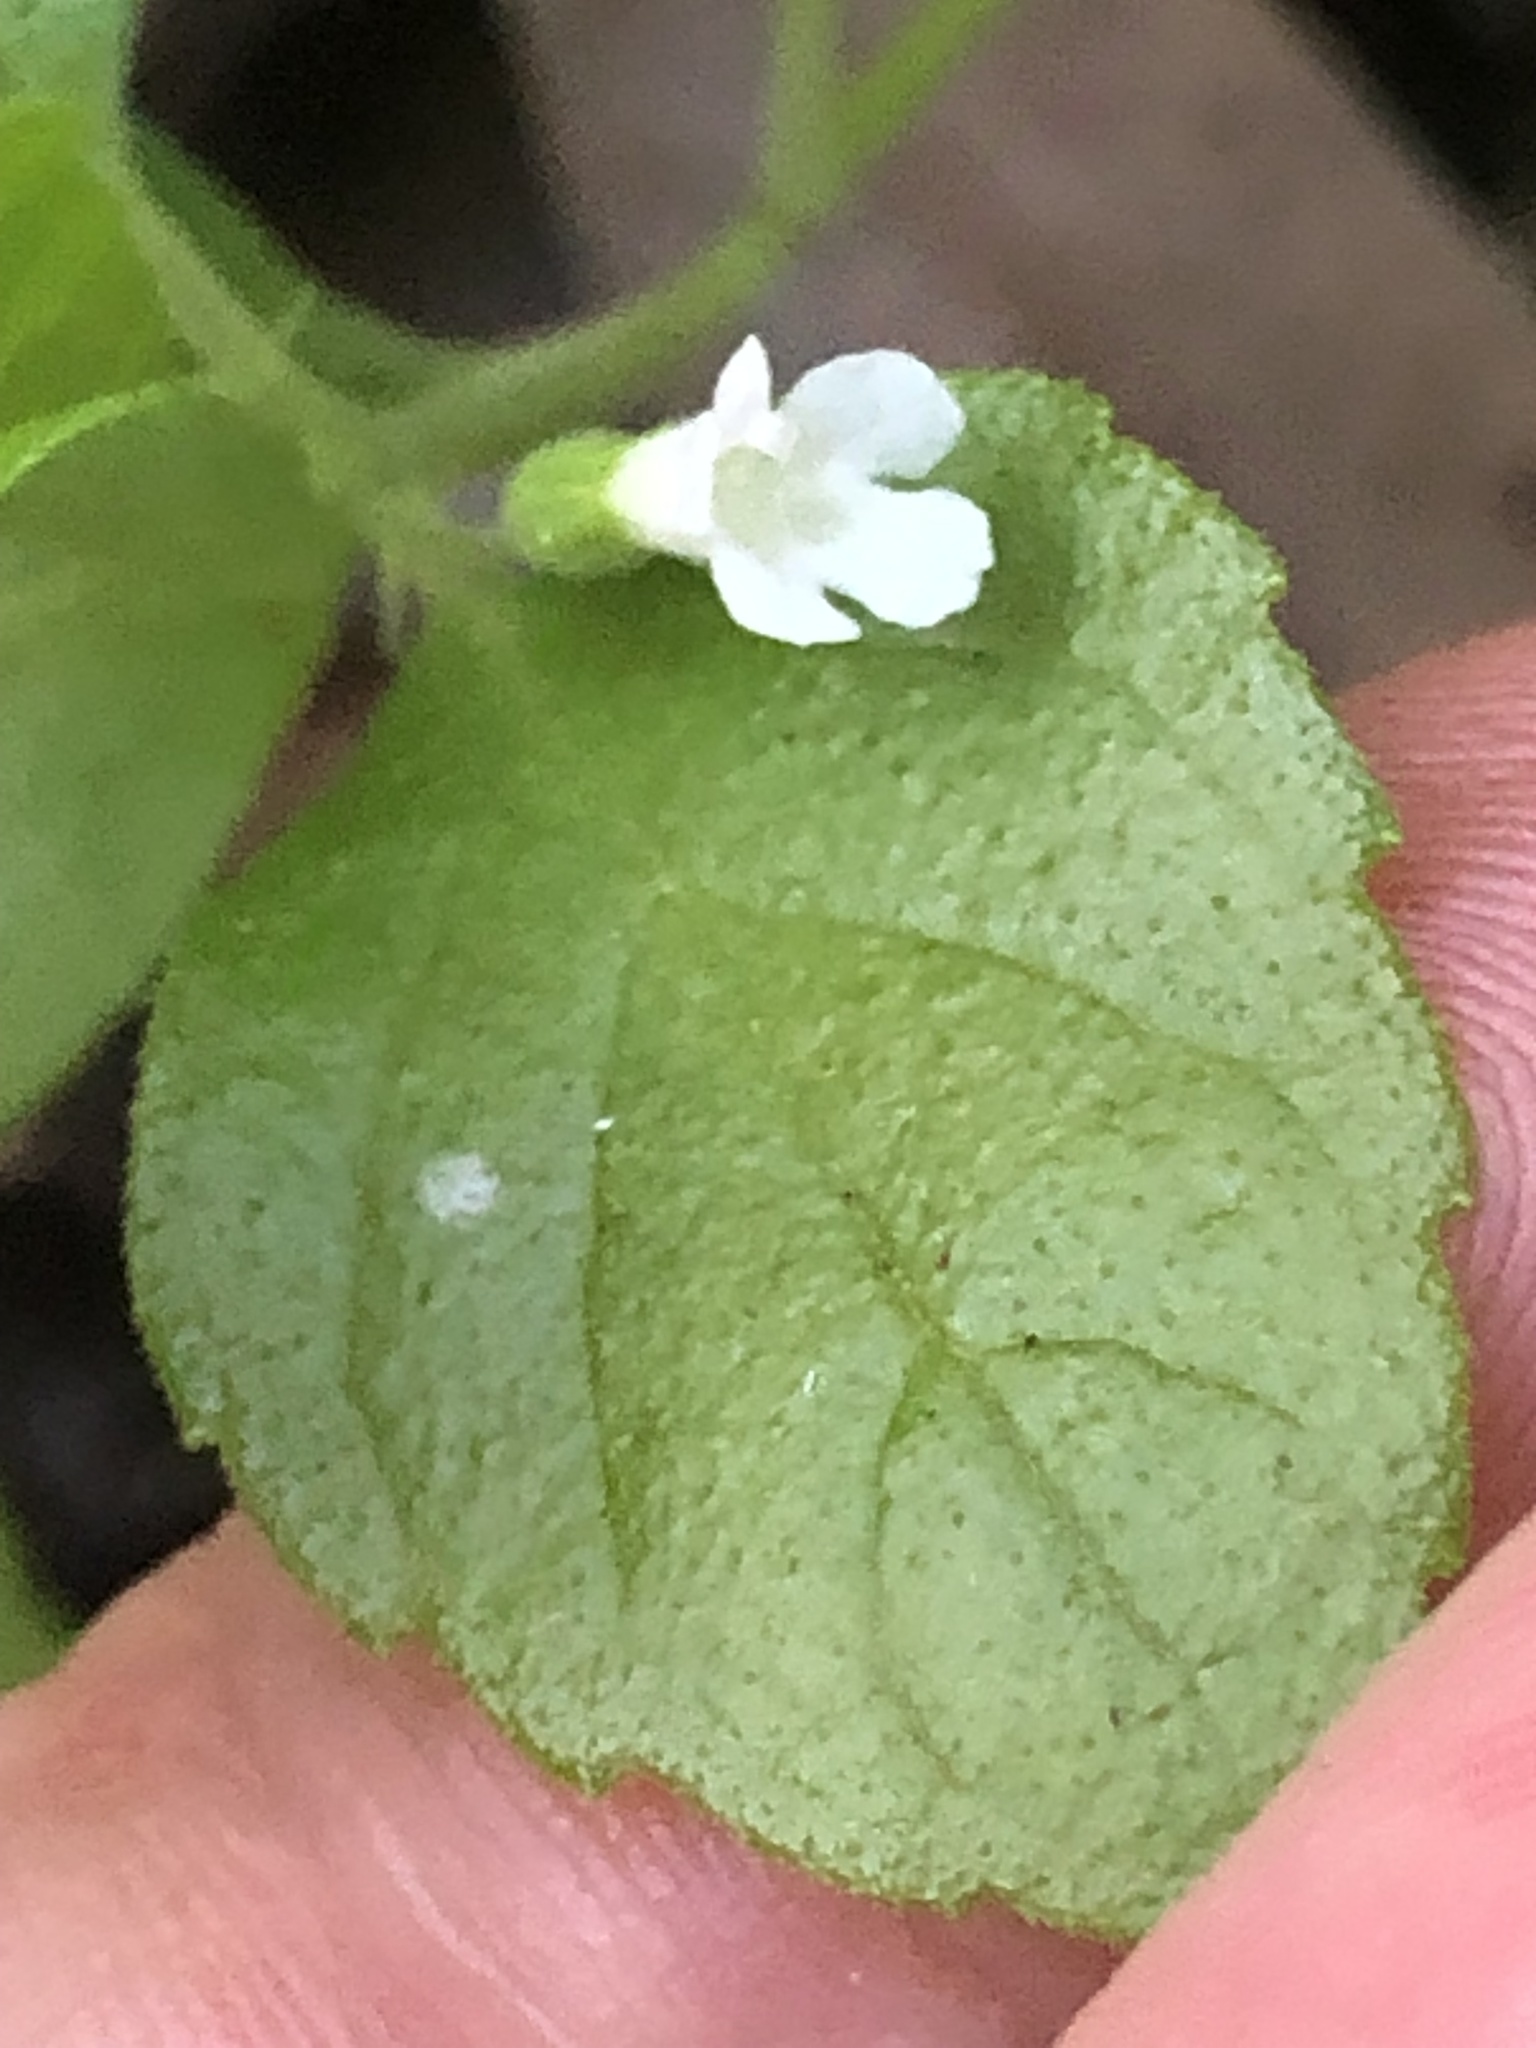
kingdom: Plantae
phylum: Tracheophyta
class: Magnoliopsida
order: Lamiales
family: Lamiaceae
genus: Micromeria
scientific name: Micromeria douglasii
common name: Yerba buena
